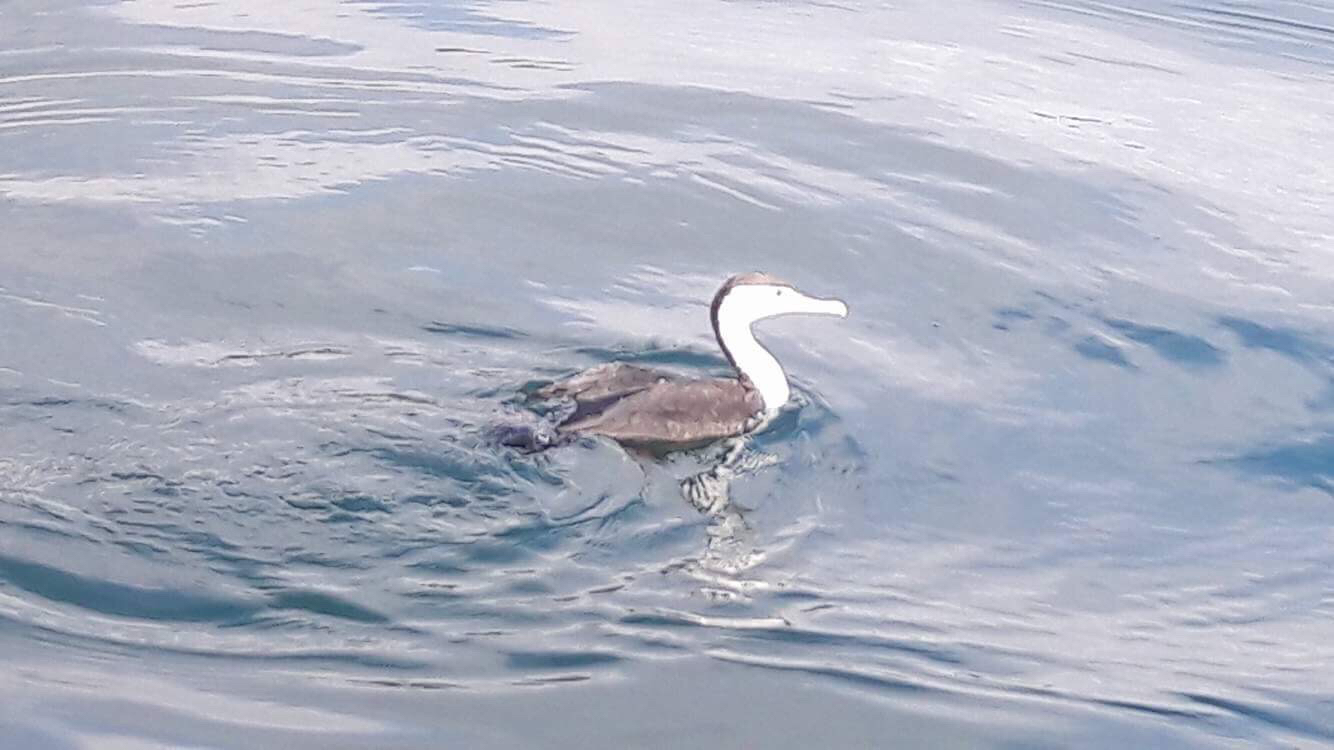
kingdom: Animalia
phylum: Chordata
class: Aves
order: Suliformes
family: Phalacrocoracidae
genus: Phalacrocorax
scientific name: Phalacrocorax varius
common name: Pied cormorant
